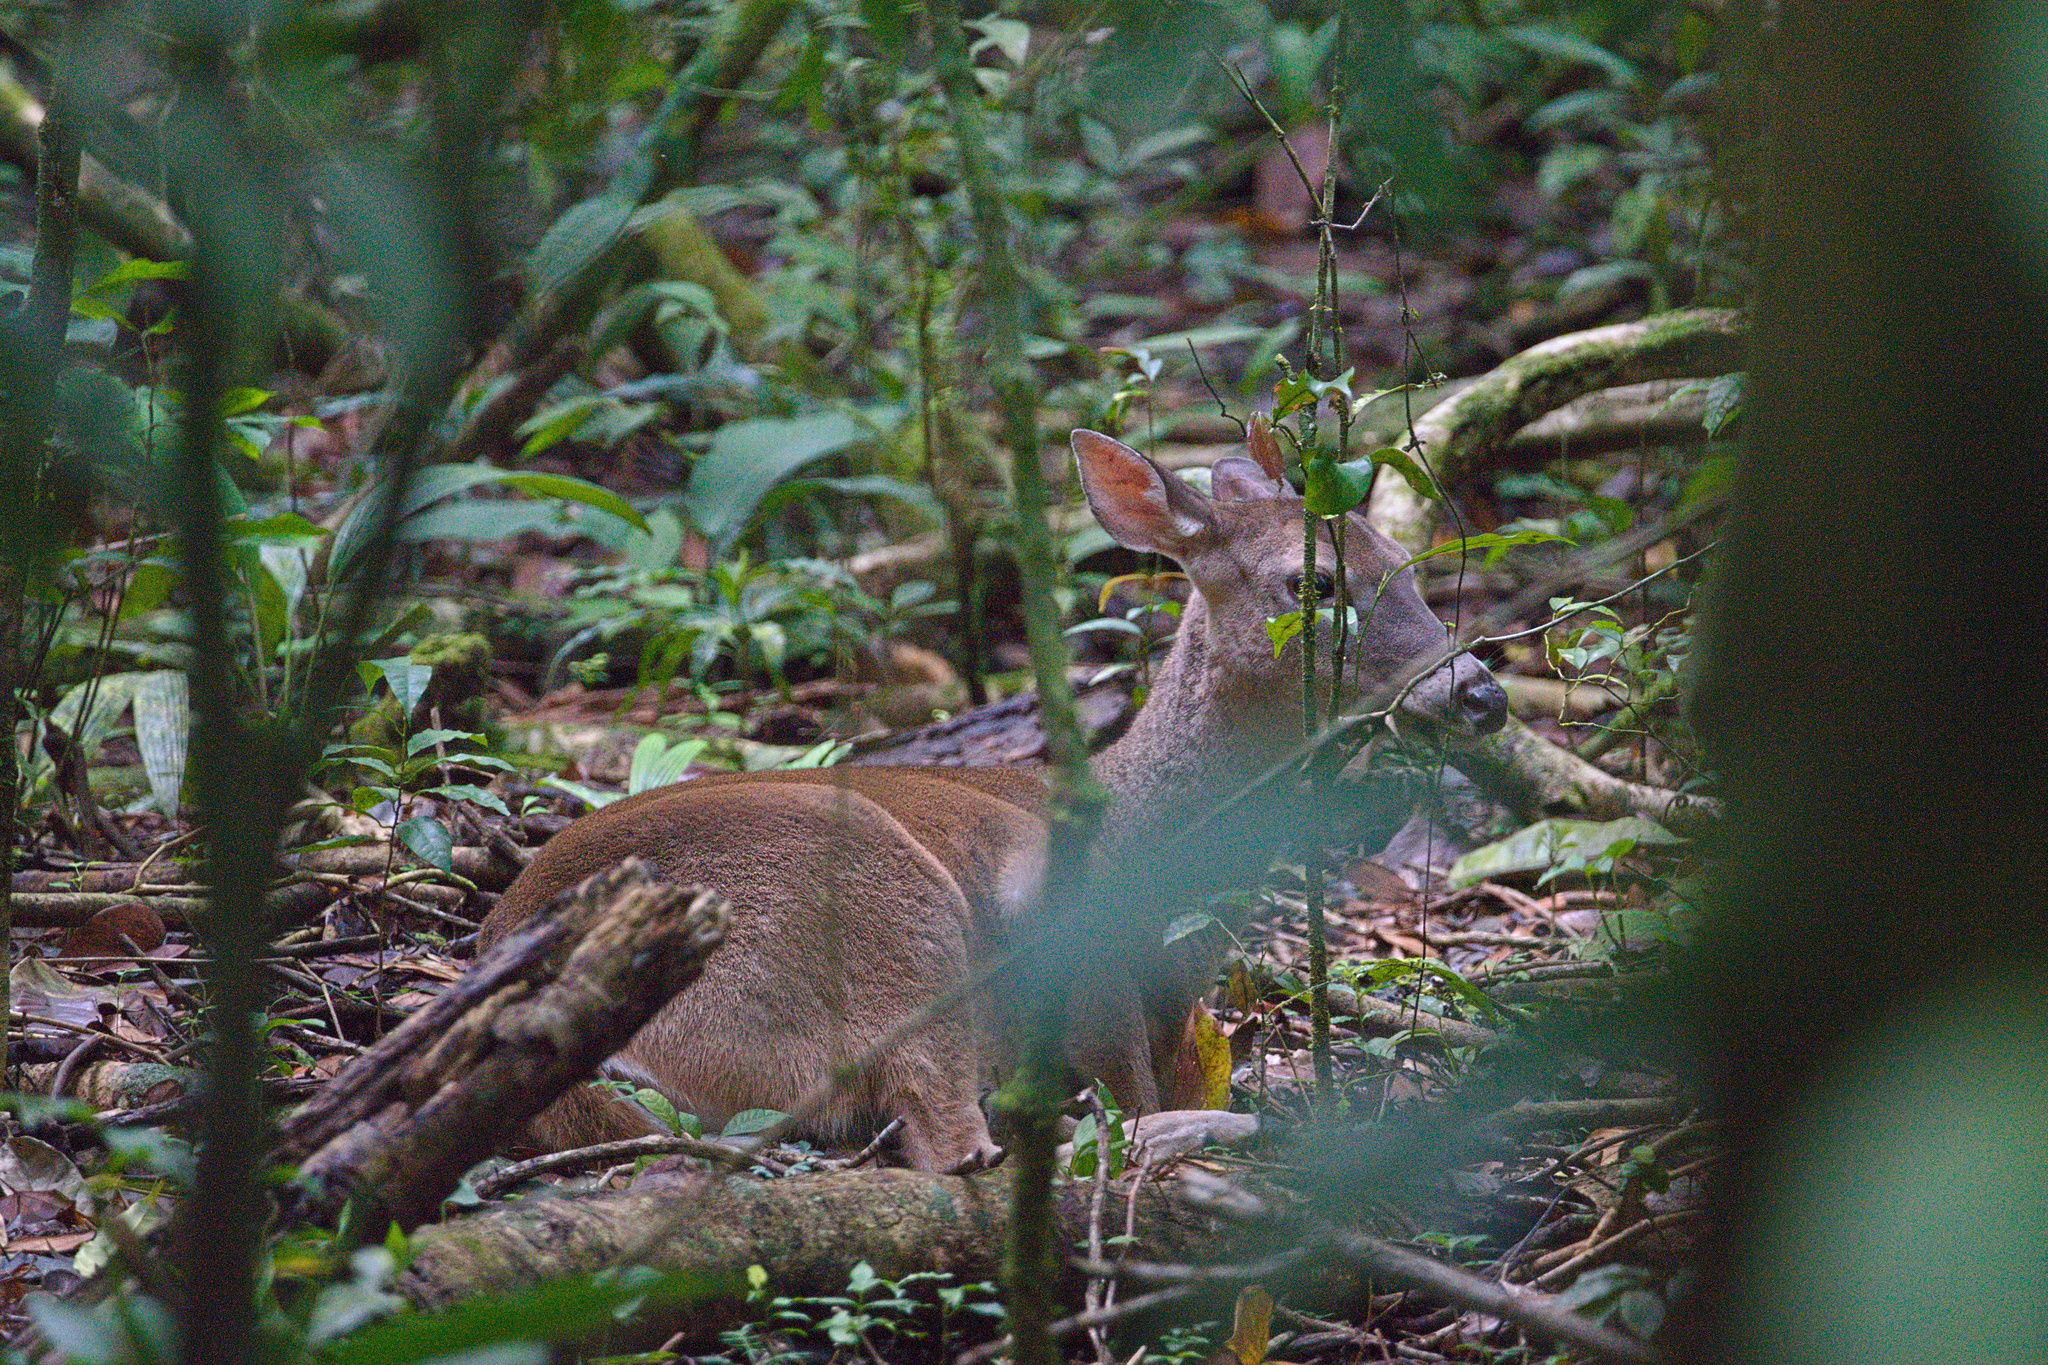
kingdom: Animalia
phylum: Chordata
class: Mammalia
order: Artiodactyla
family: Cervidae
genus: Odocoileus
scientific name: Odocoileus virginianus
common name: White-tailed deer
